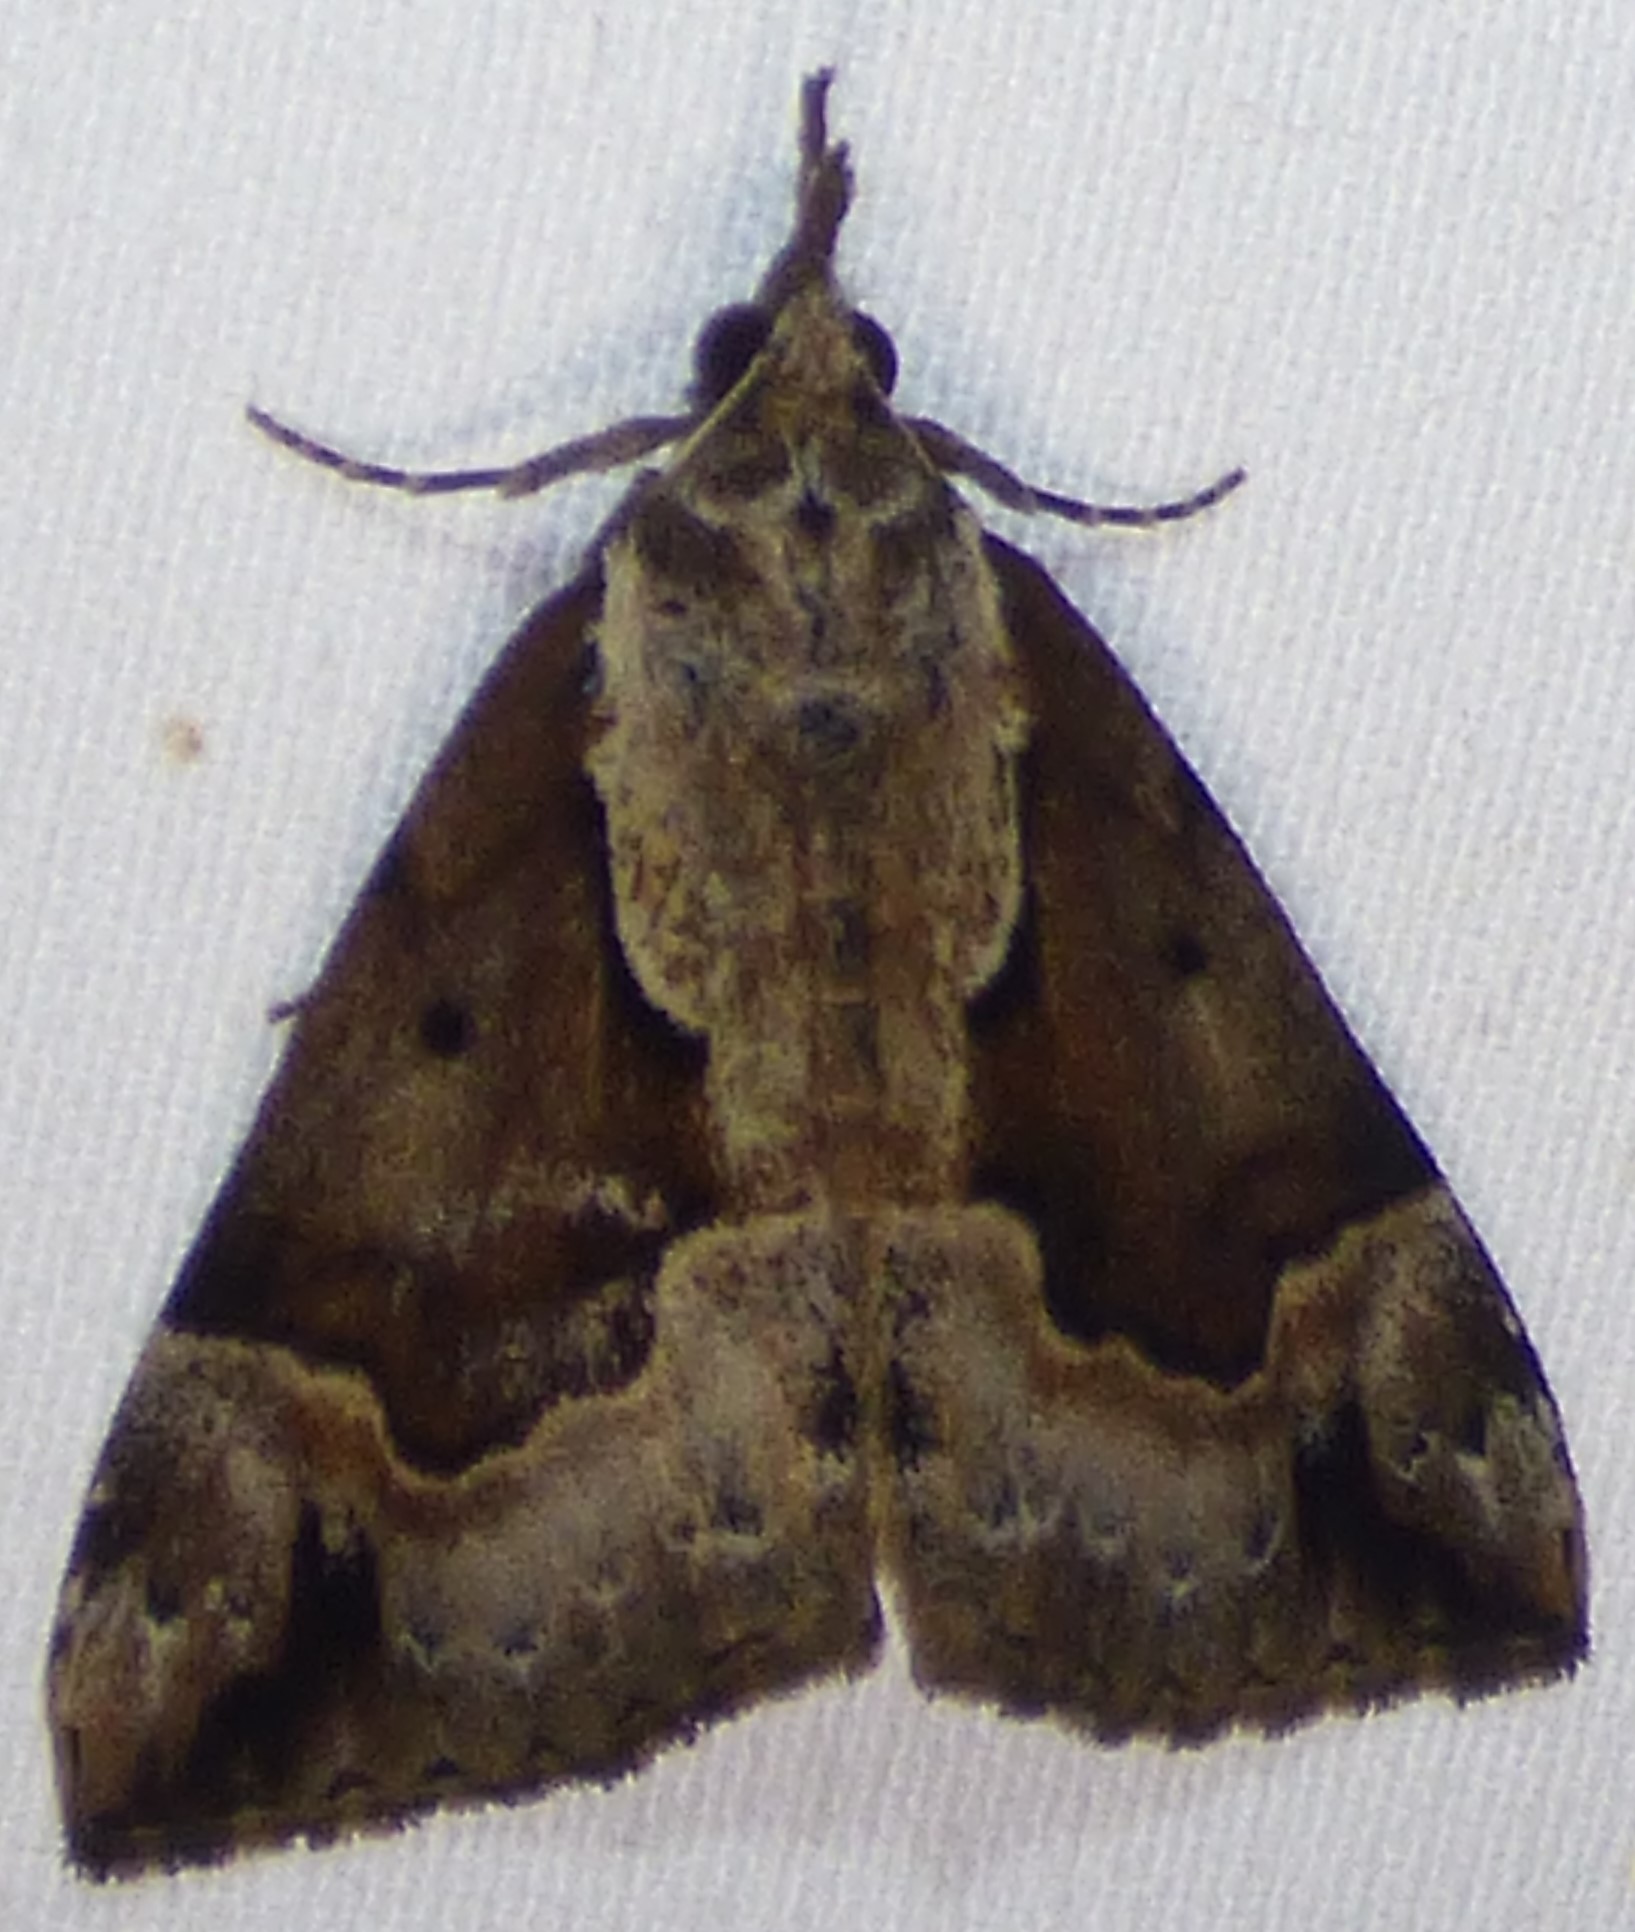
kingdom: Animalia
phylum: Arthropoda
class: Insecta
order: Lepidoptera
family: Erebidae
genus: Hypena
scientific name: Hypena baltimoralis
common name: Baltimore snout
